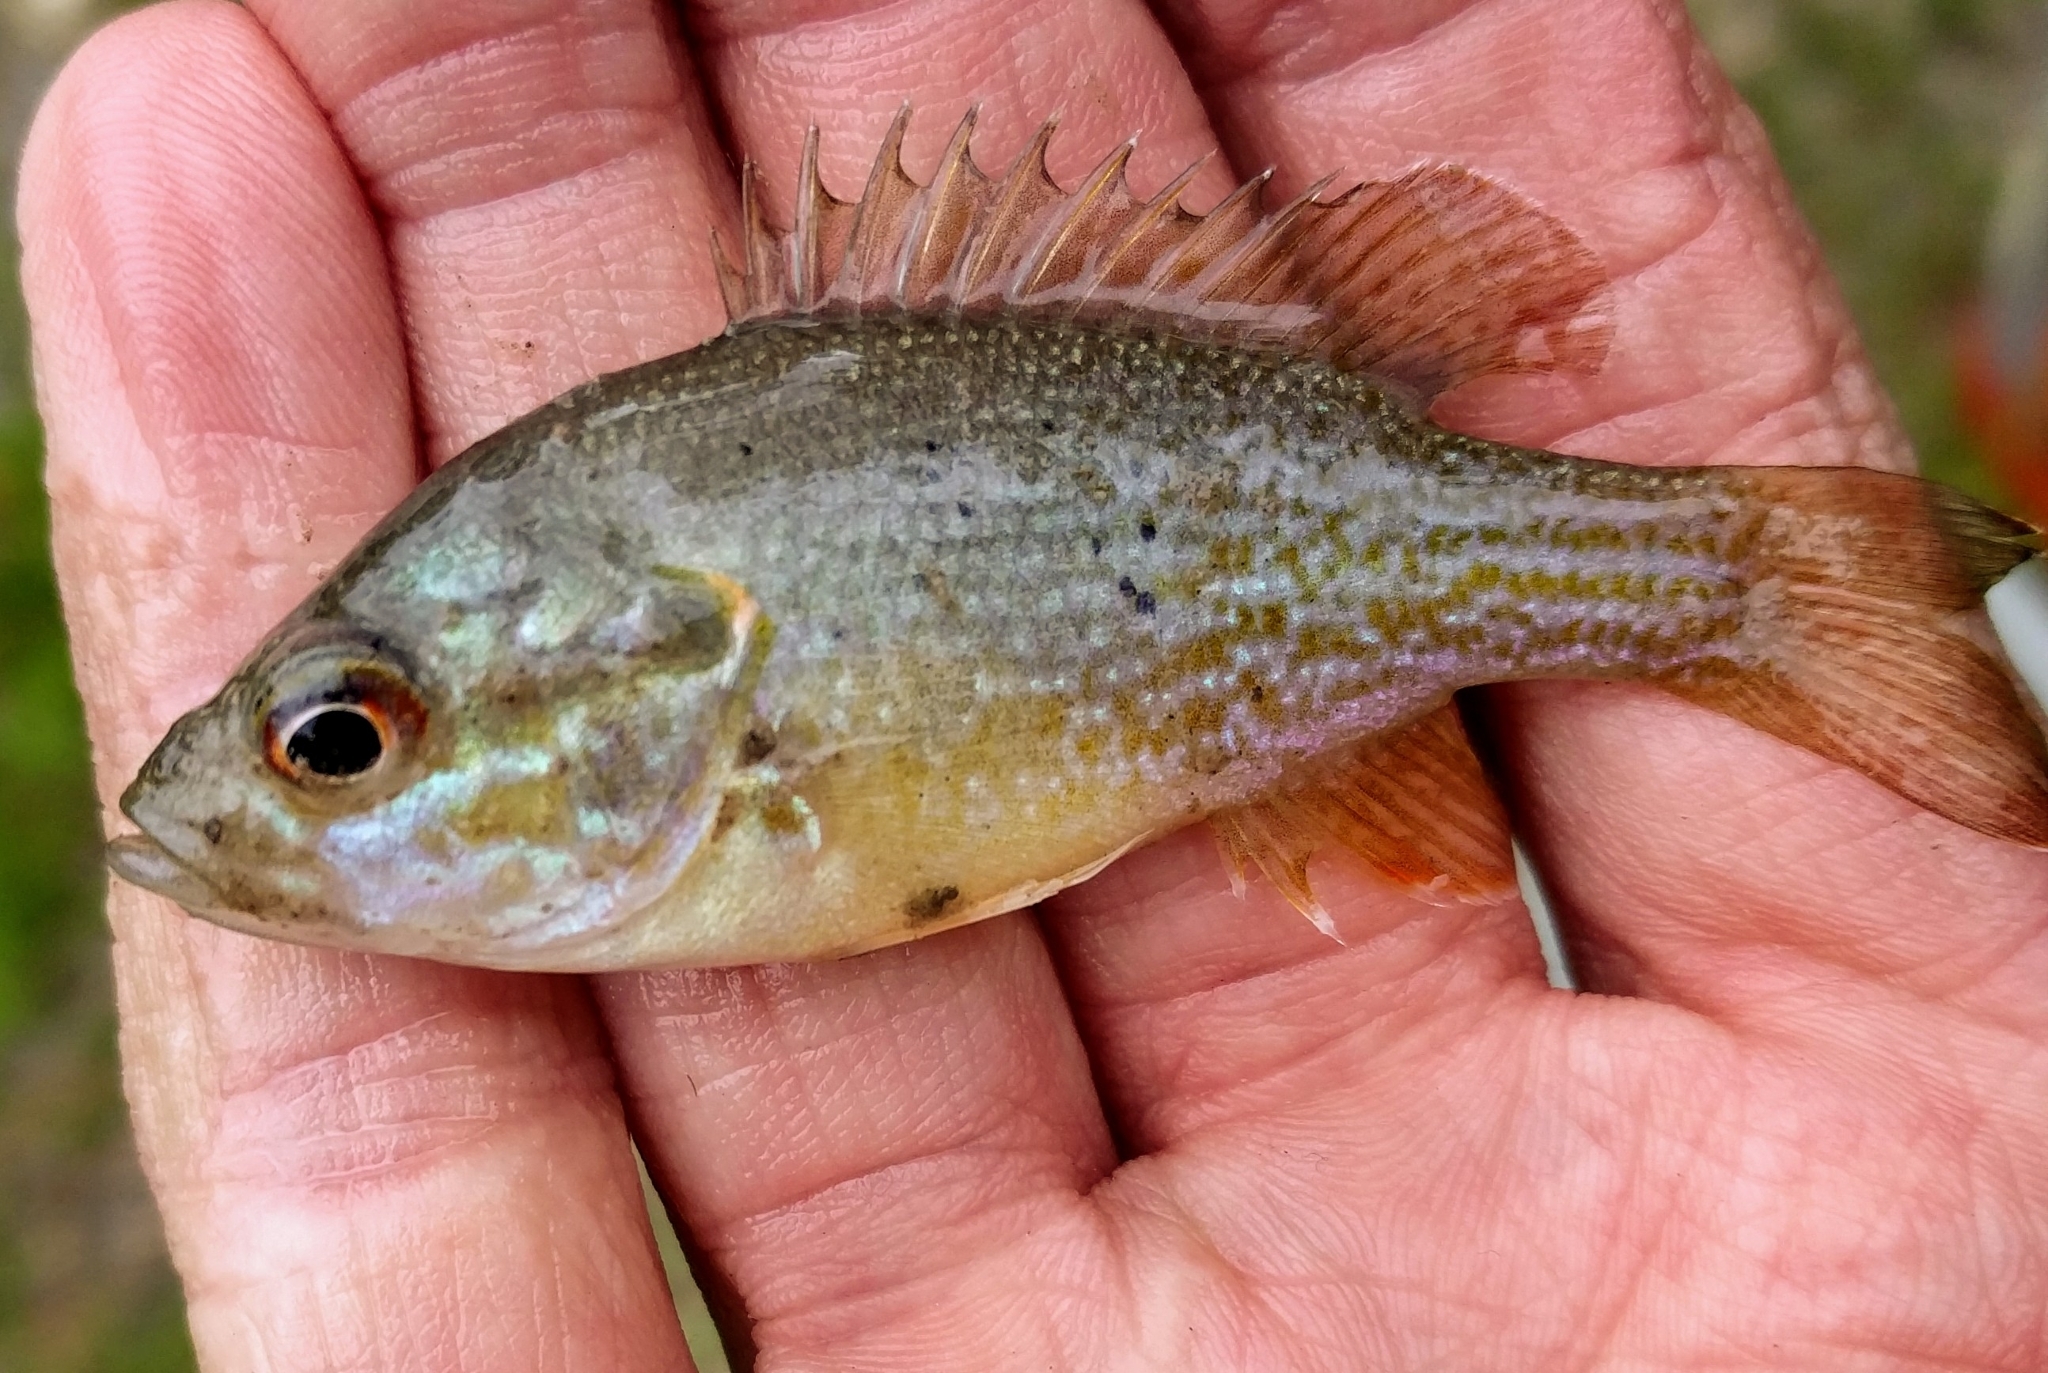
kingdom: Animalia
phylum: Chordata
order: Perciformes
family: Centrarchidae
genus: Lepomis
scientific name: Lepomis cyanellus
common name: Green sunfish
